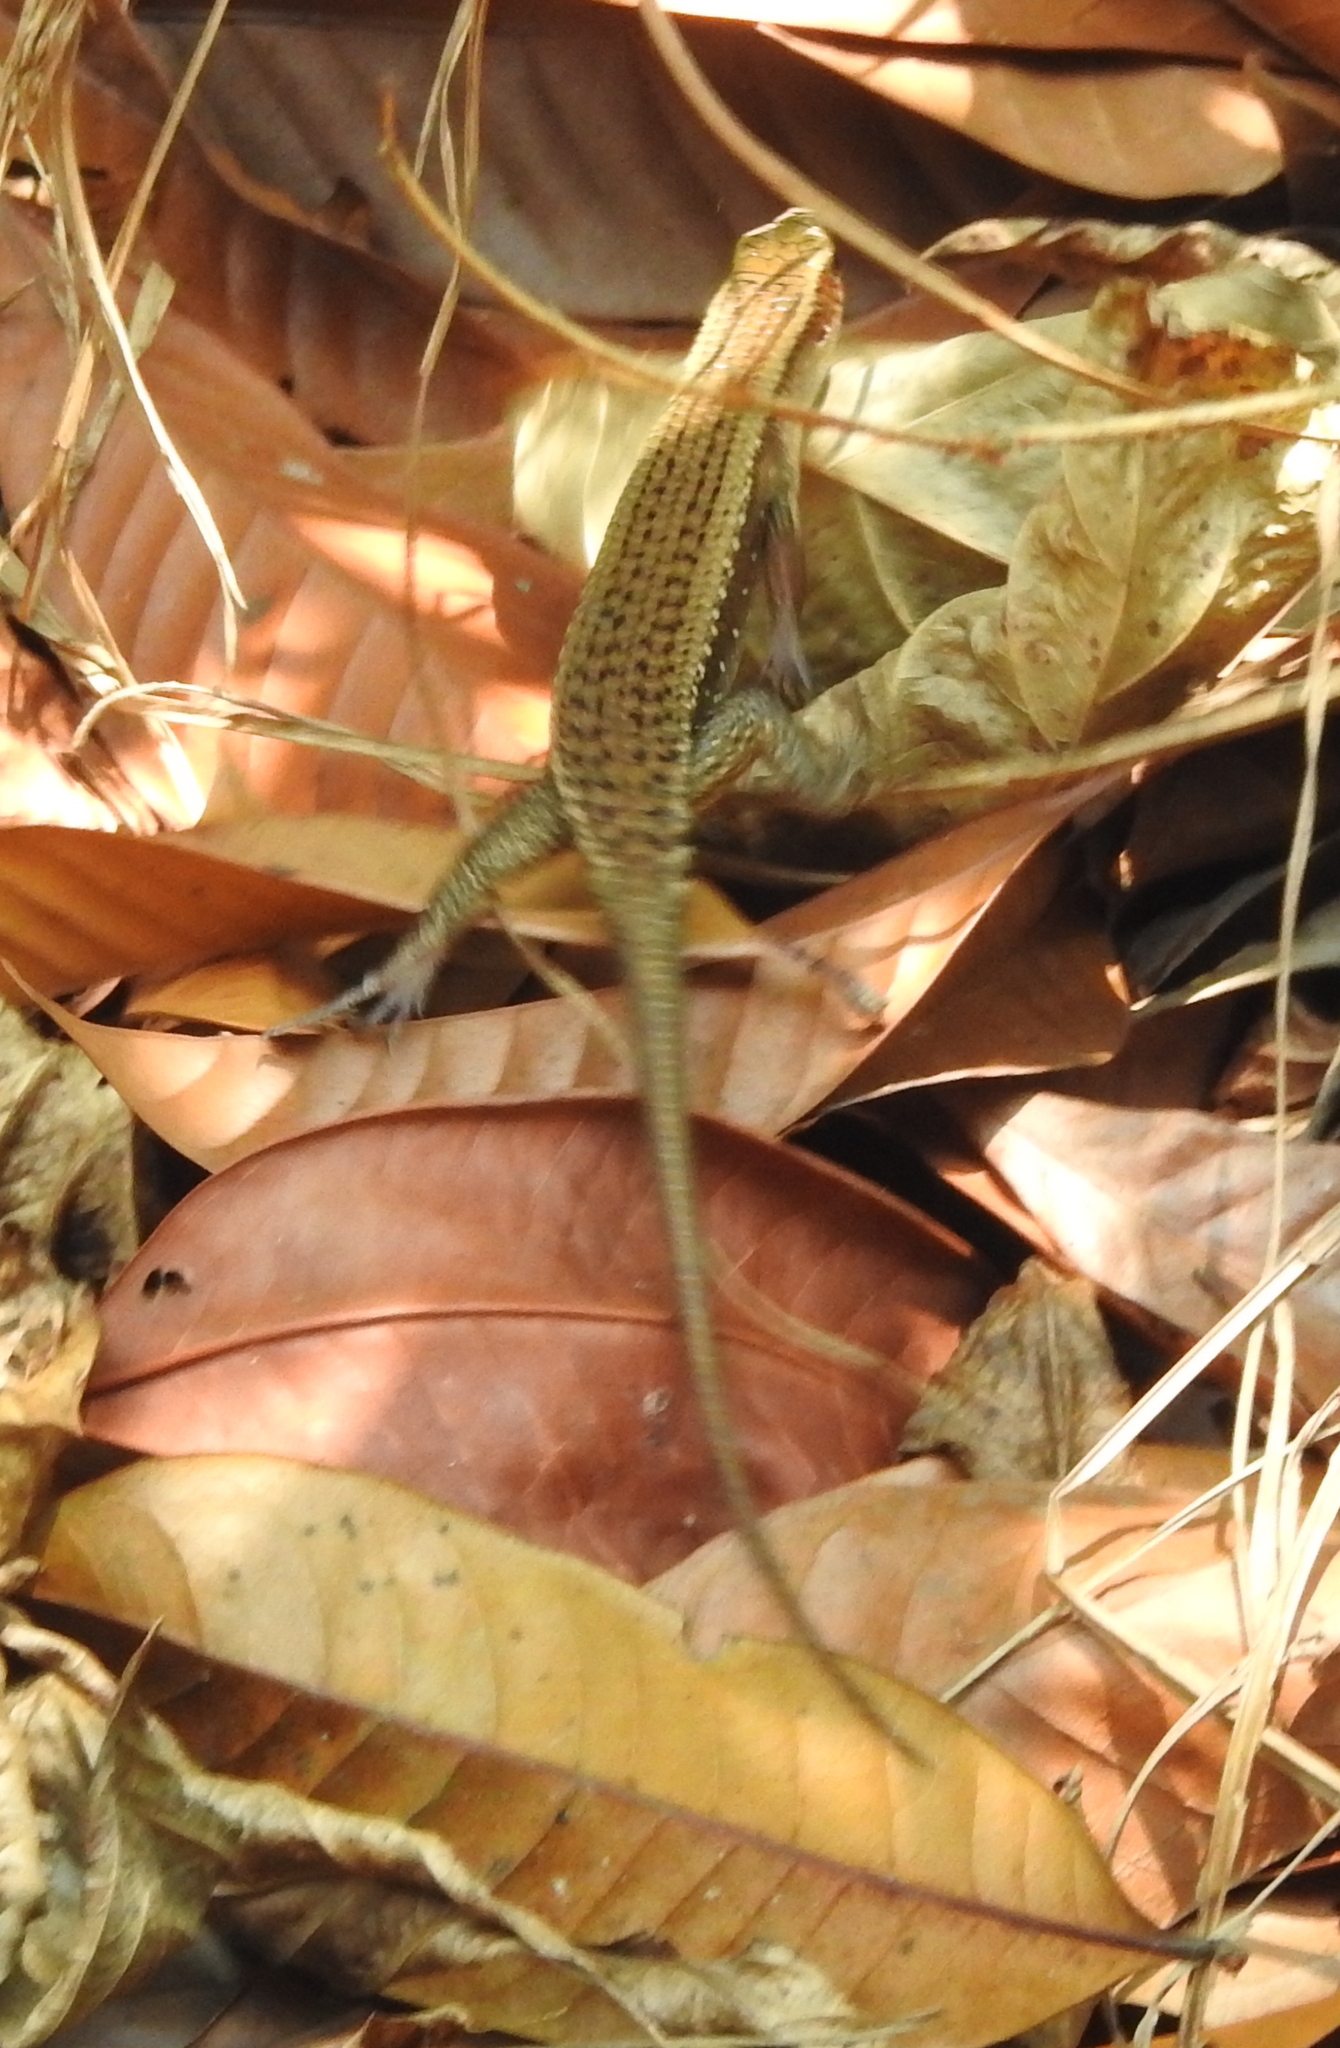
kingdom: Animalia
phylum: Chordata
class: Squamata
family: Scincidae
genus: Eutropis
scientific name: Eutropis multifasciata
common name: Common mabuya
